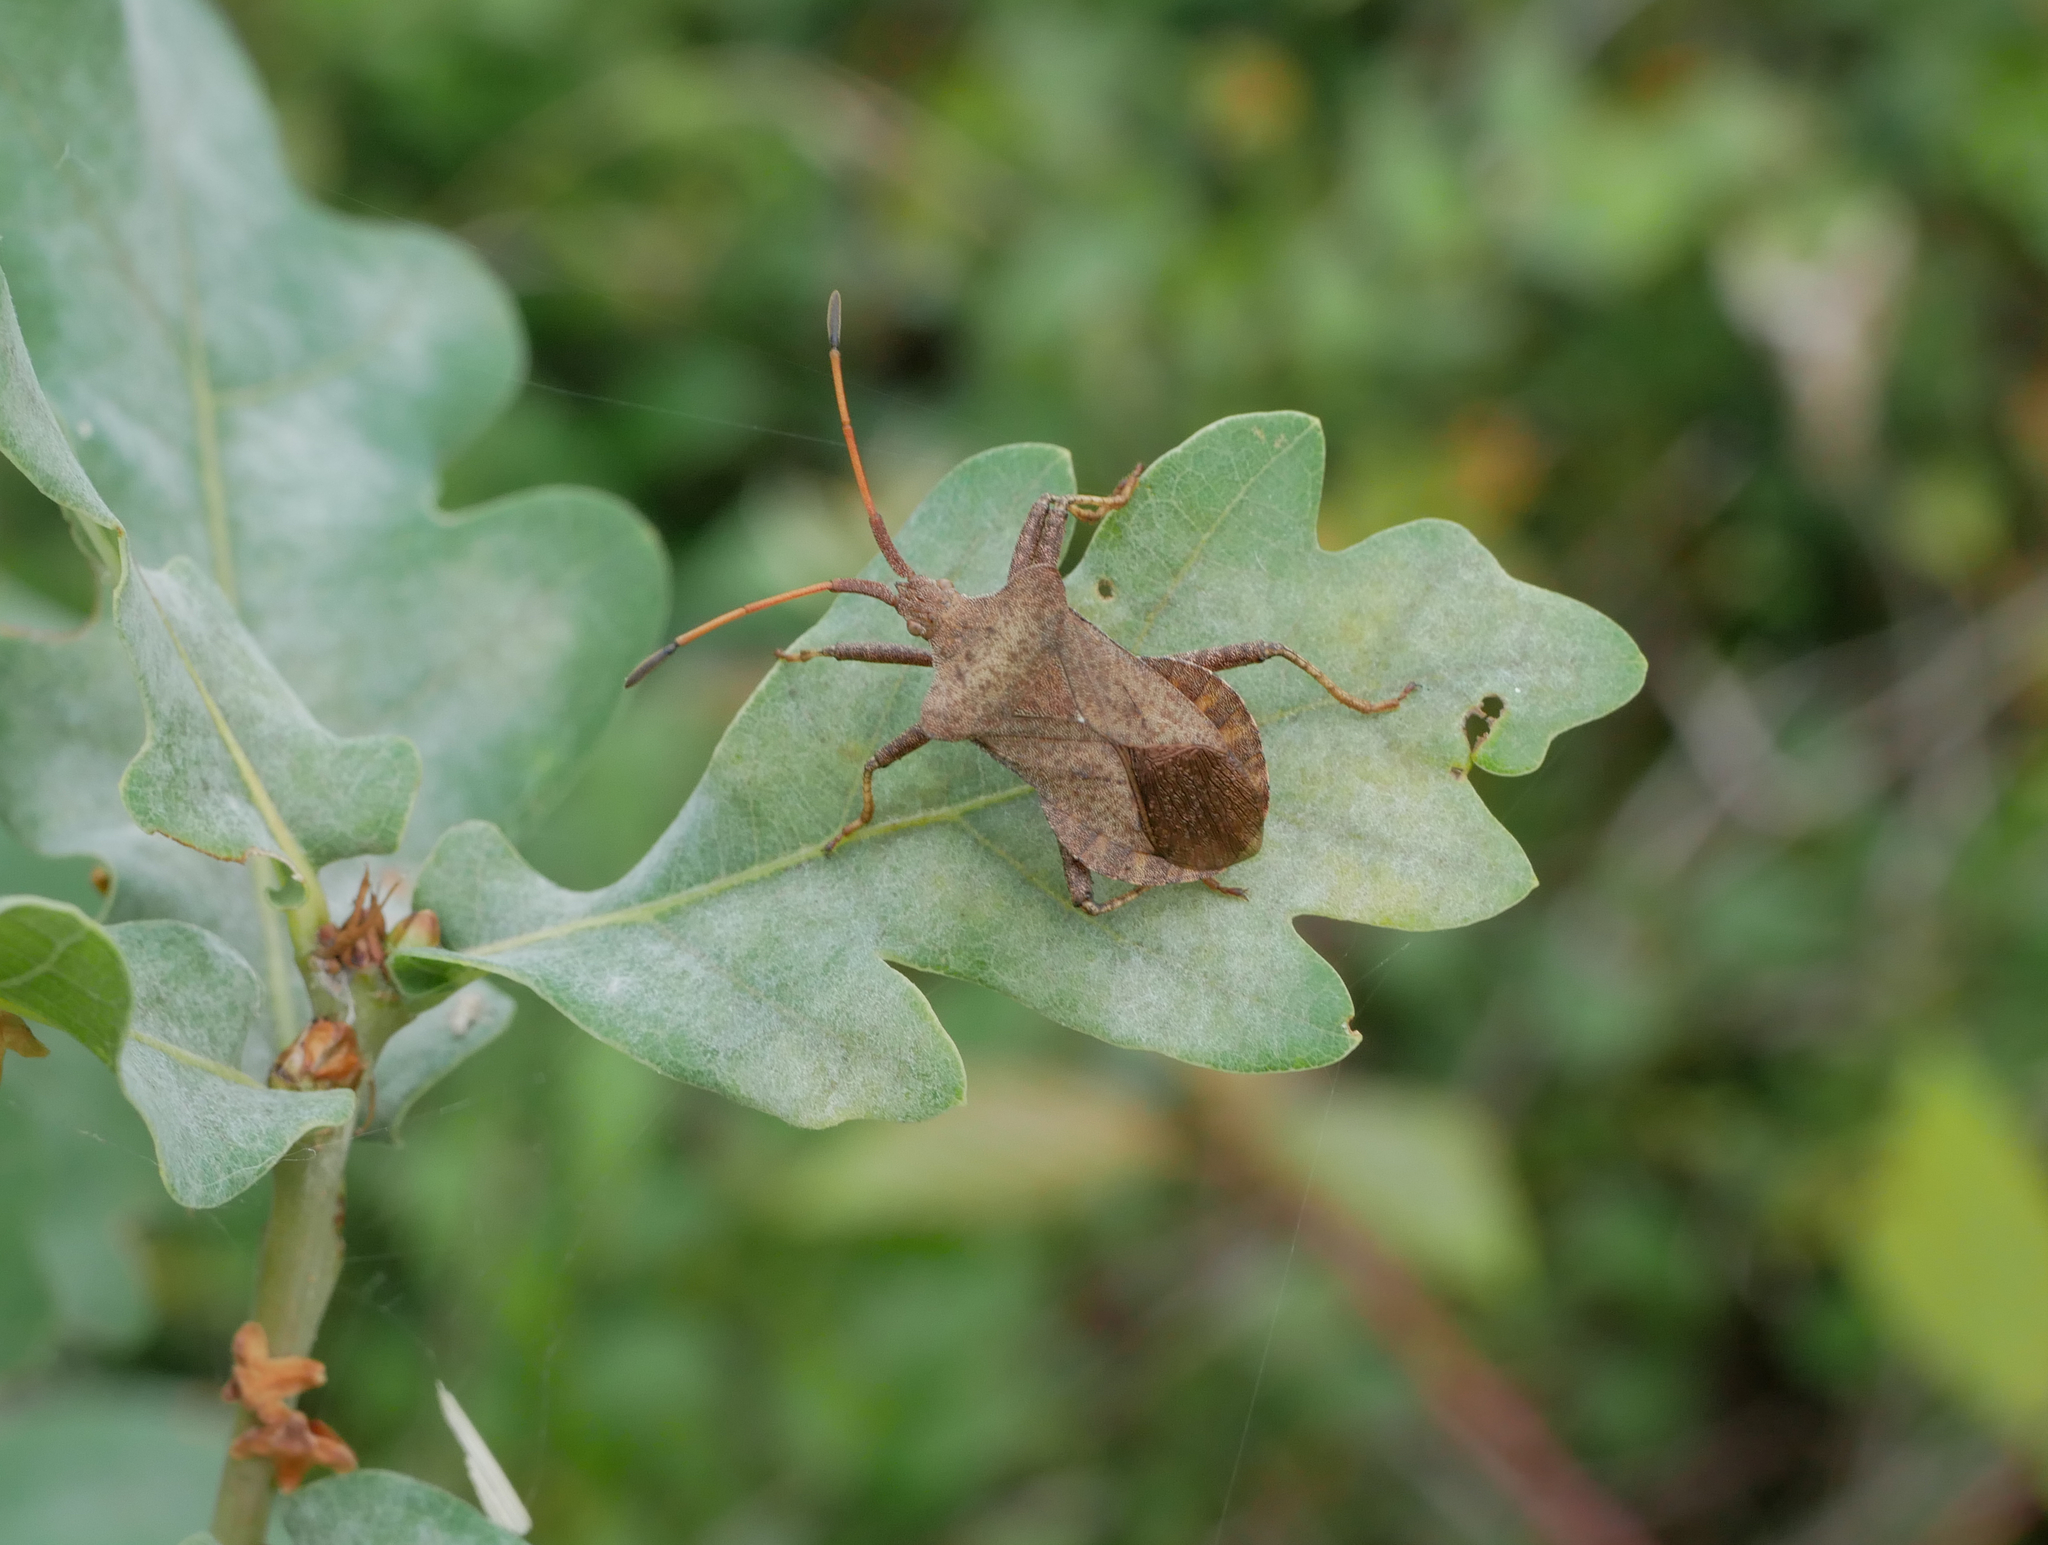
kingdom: Animalia
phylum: Arthropoda
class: Insecta
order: Hemiptera
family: Coreidae
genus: Coreus
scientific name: Coreus marginatus
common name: Dock bug
